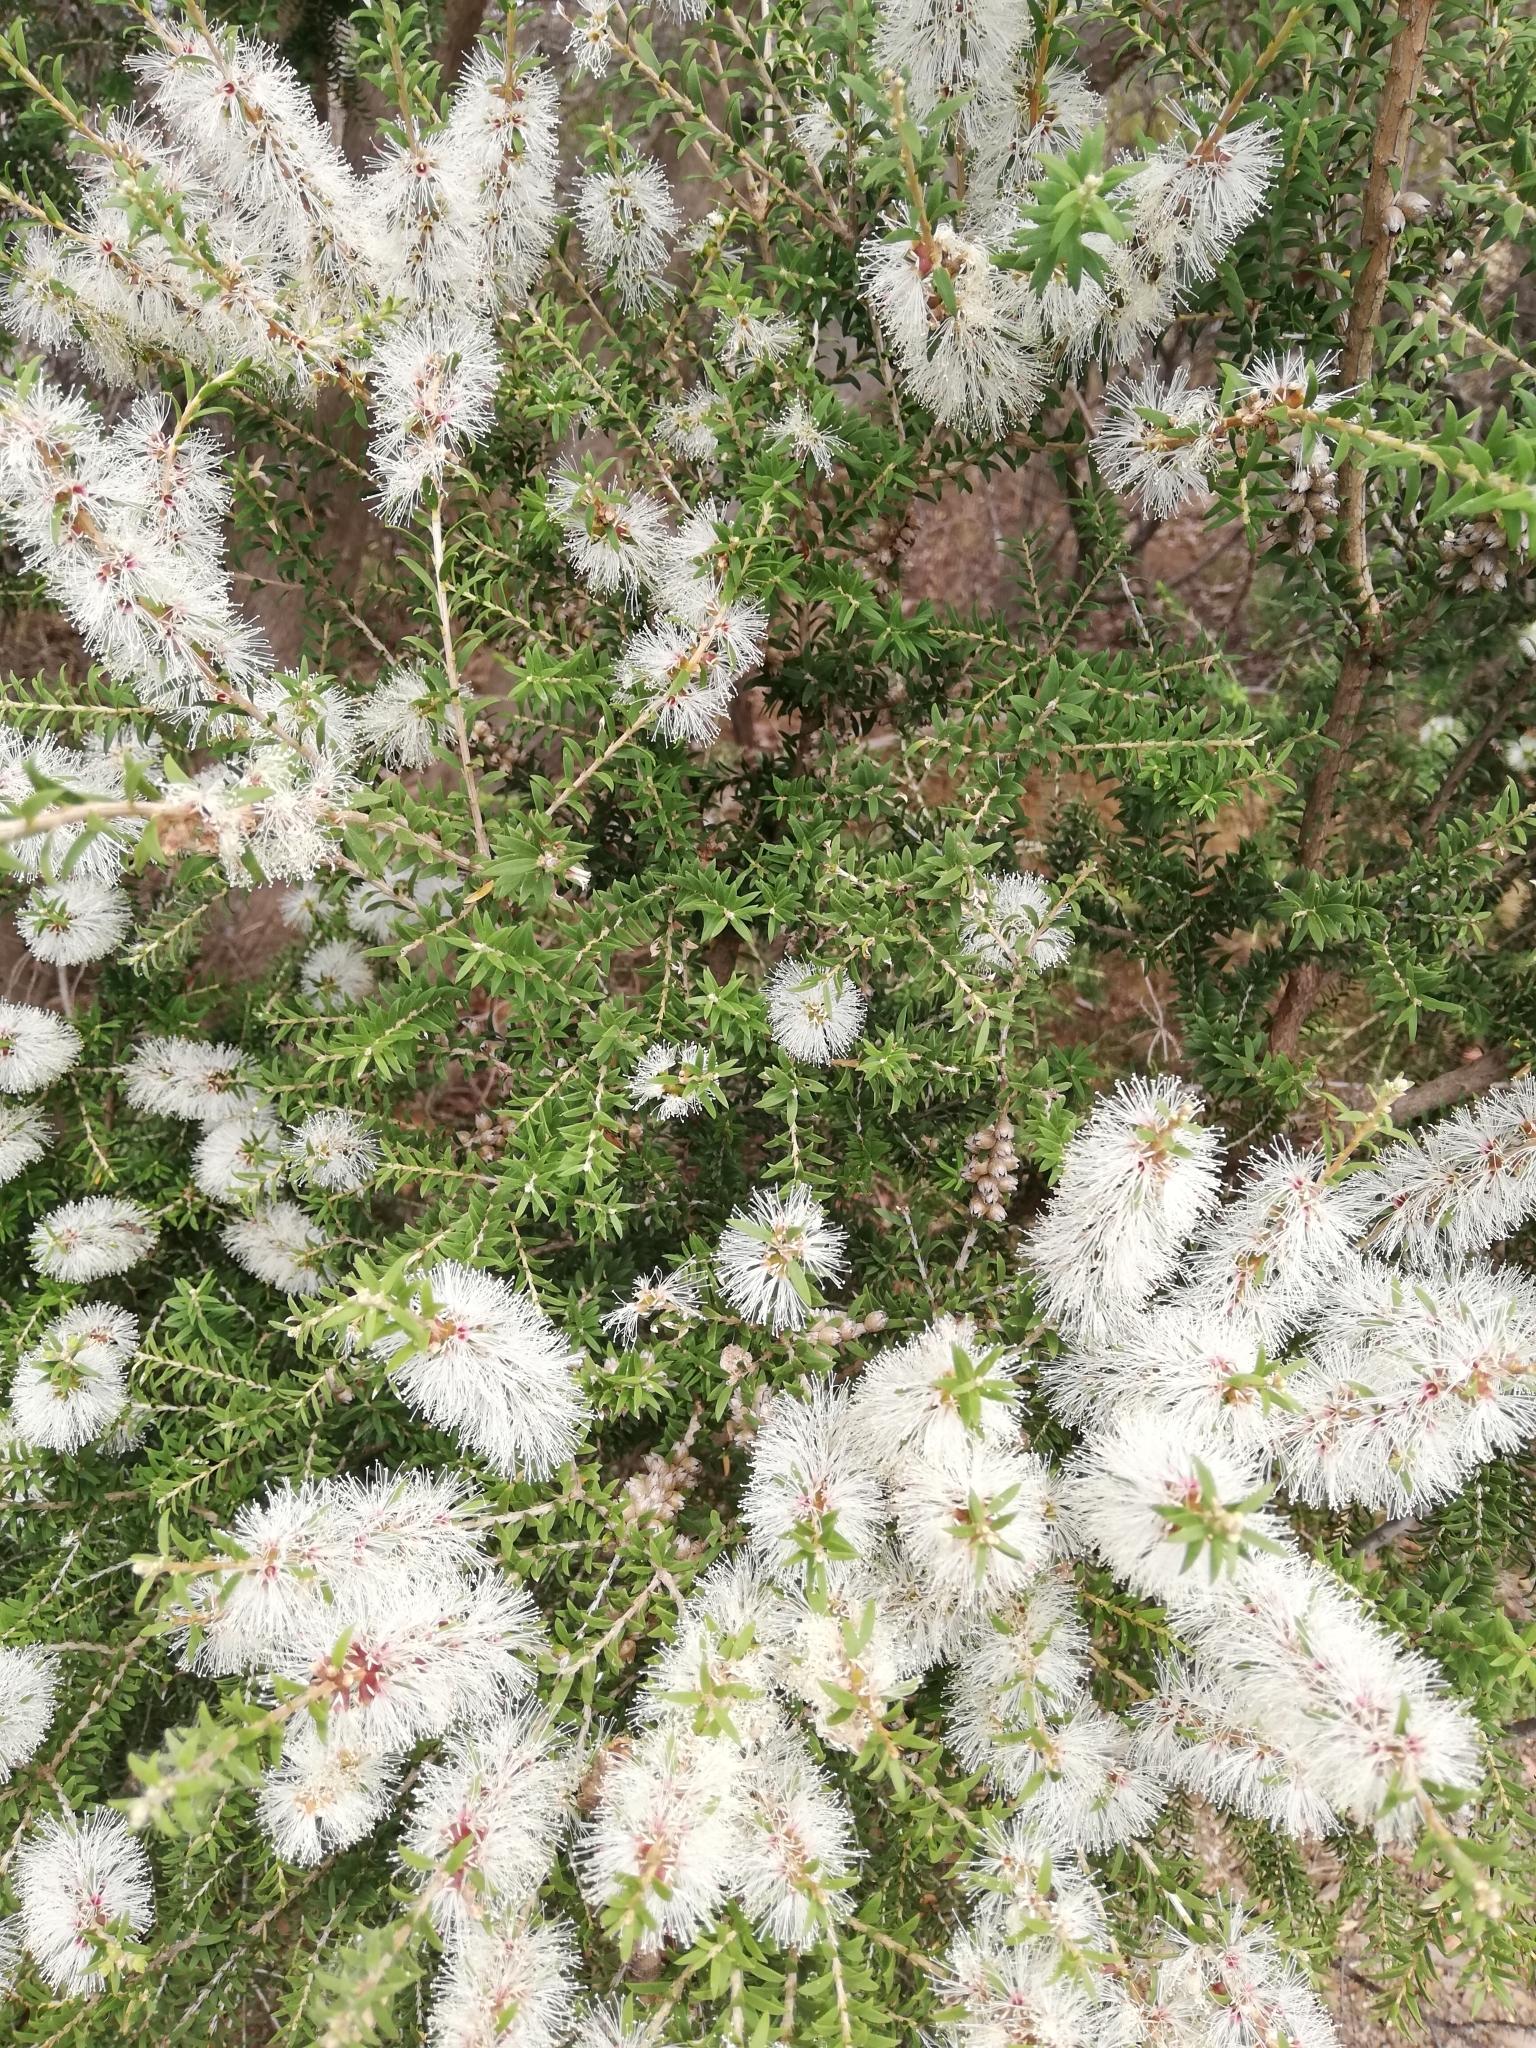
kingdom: Plantae
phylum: Tracheophyta
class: Magnoliopsida
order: Myrtales
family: Myrtaceae
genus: Melaleuca
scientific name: Melaleuca lanceolata
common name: Rottnest island teatree
